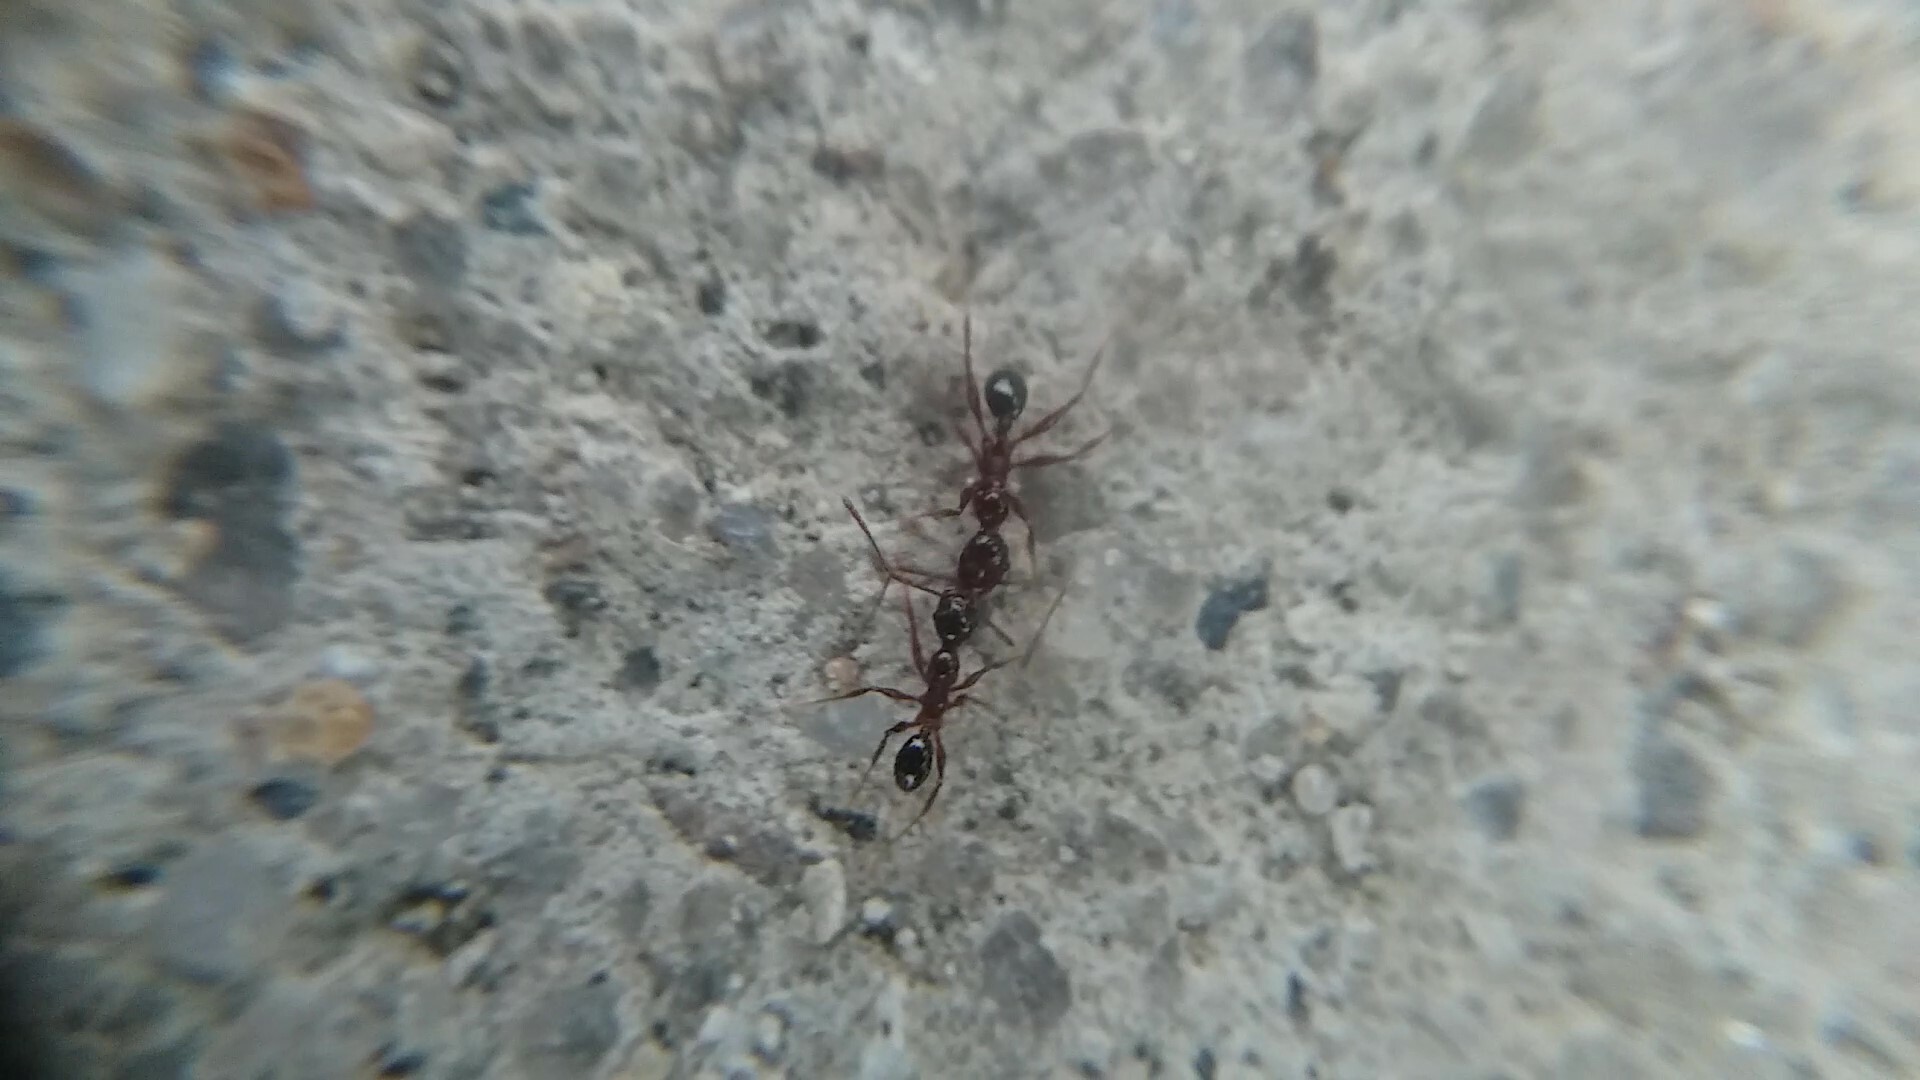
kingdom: Animalia
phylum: Arthropoda
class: Insecta
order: Hymenoptera
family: Formicidae
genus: Pheidole
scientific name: Pheidole obscurithorax
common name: Obscure big-headed ant
